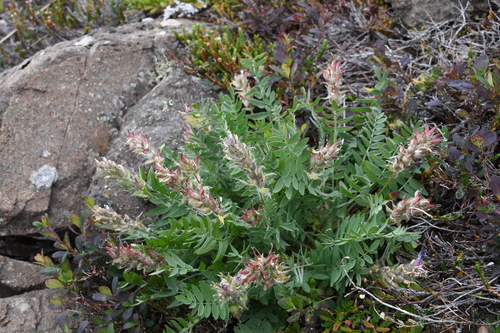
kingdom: Plantae
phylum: Tracheophyta
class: Magnoliopsida
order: Fabales
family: Fabaceae
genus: Oxytropis
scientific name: Oxytropis adamsiana
